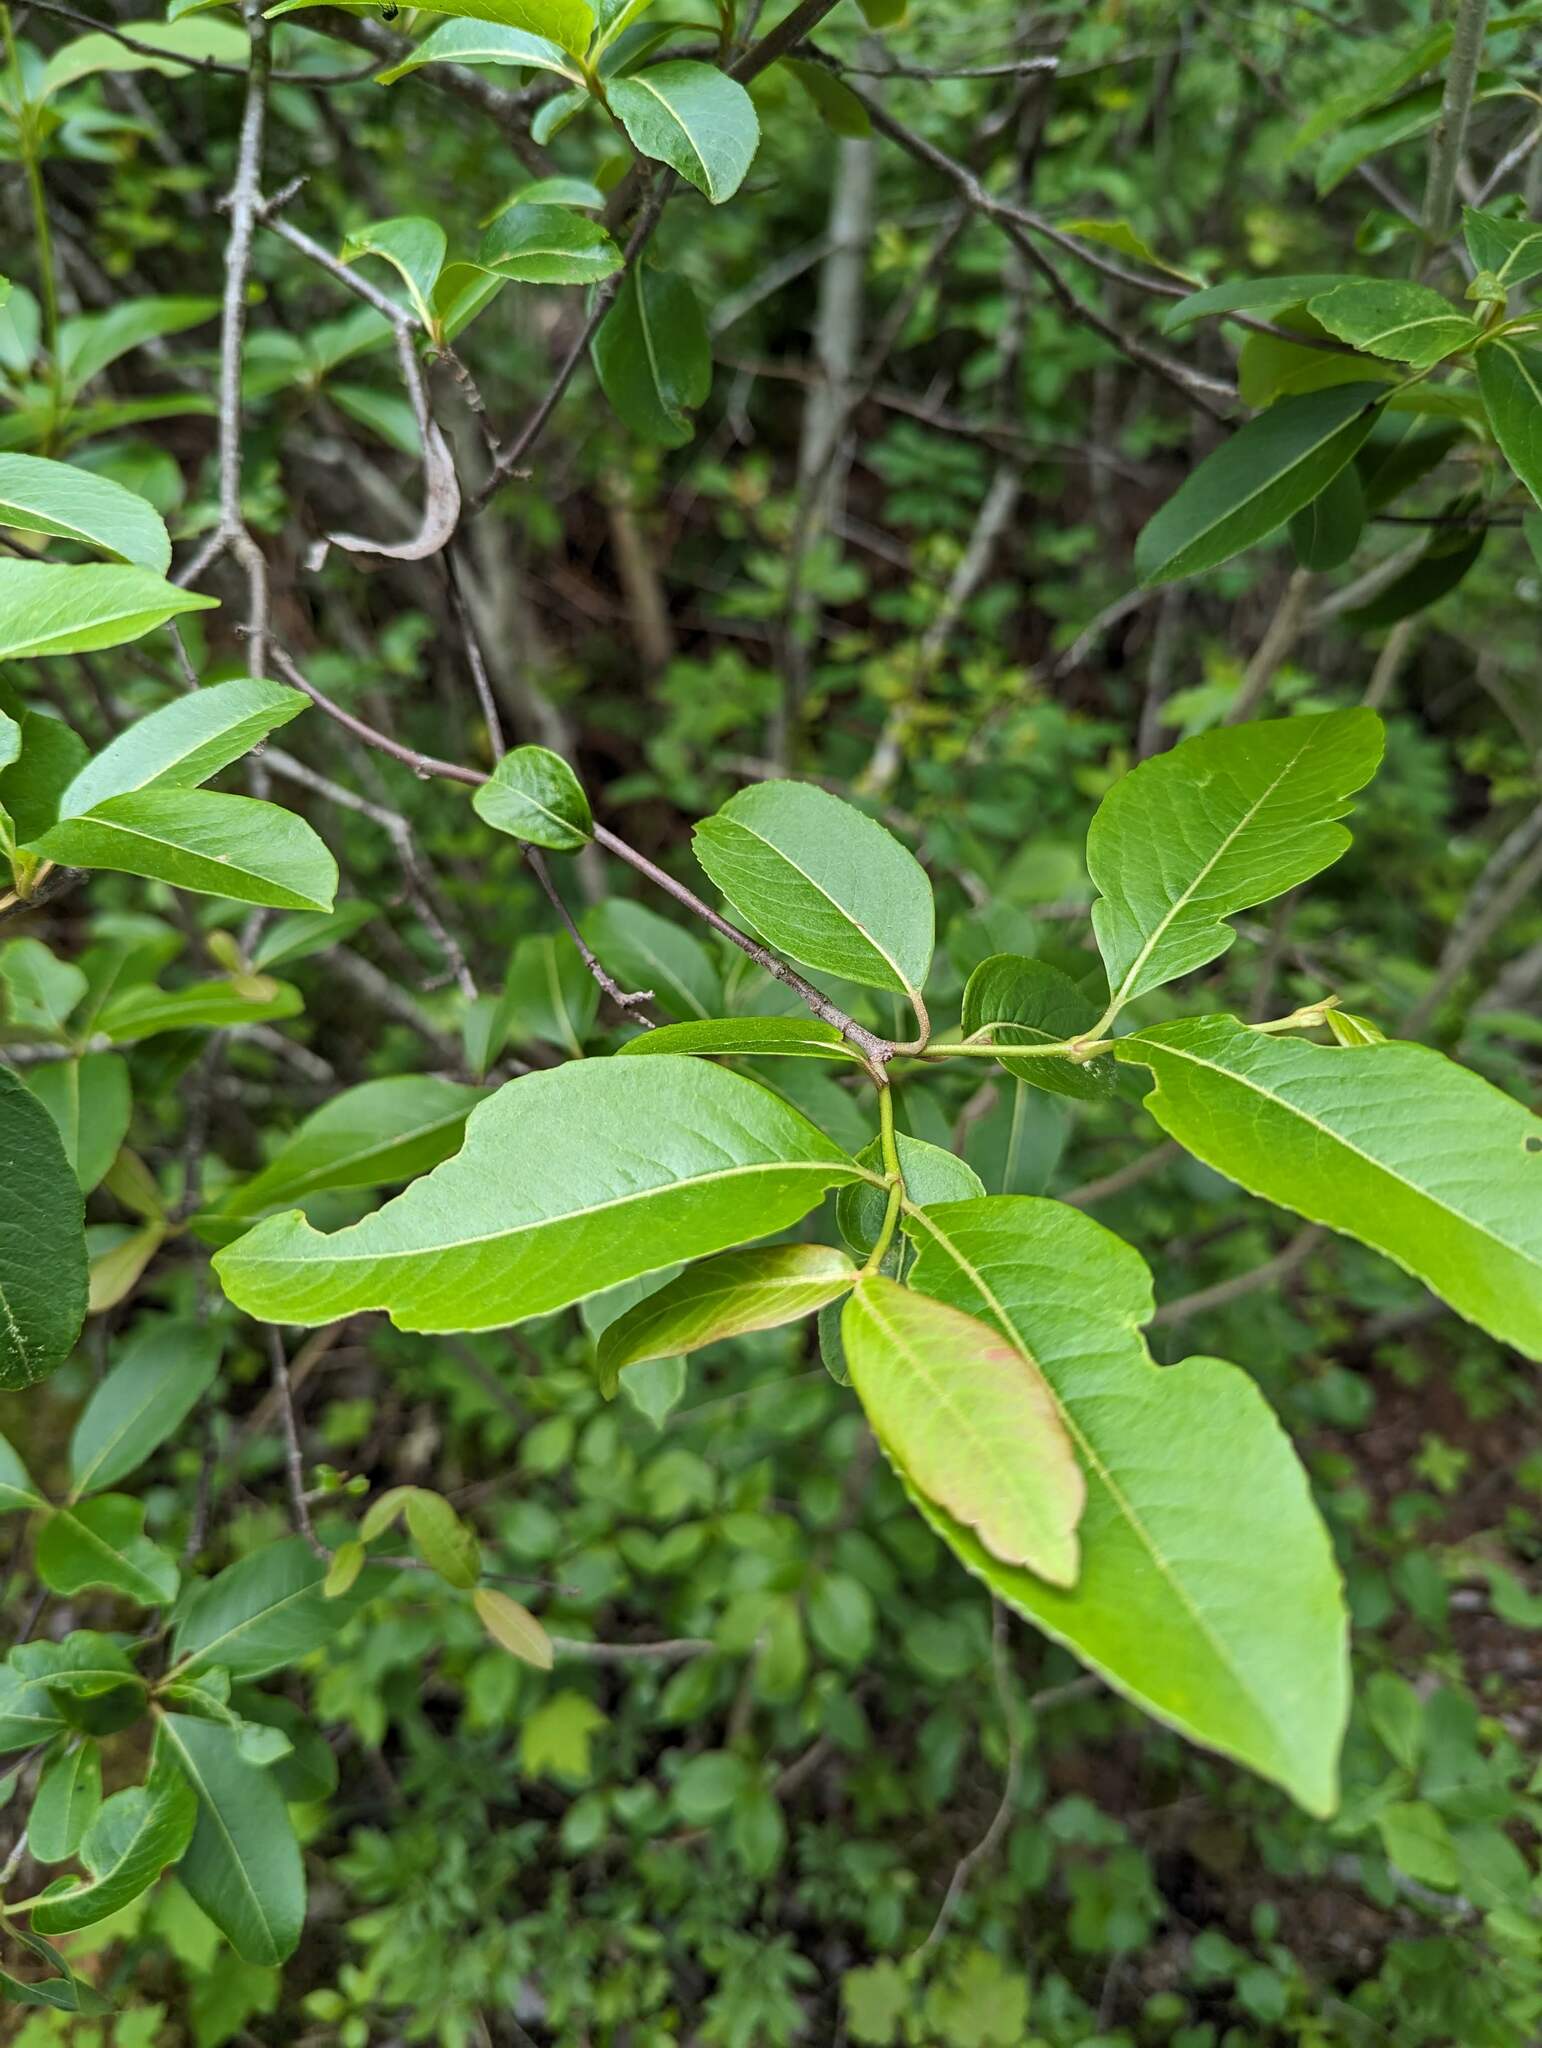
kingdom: Plantae
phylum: Tracheophyta
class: Magnoliopsida
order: Dipsacales
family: Viburnaceae
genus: Viburnum
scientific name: Viburnum cassinoides
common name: Swamp haw
